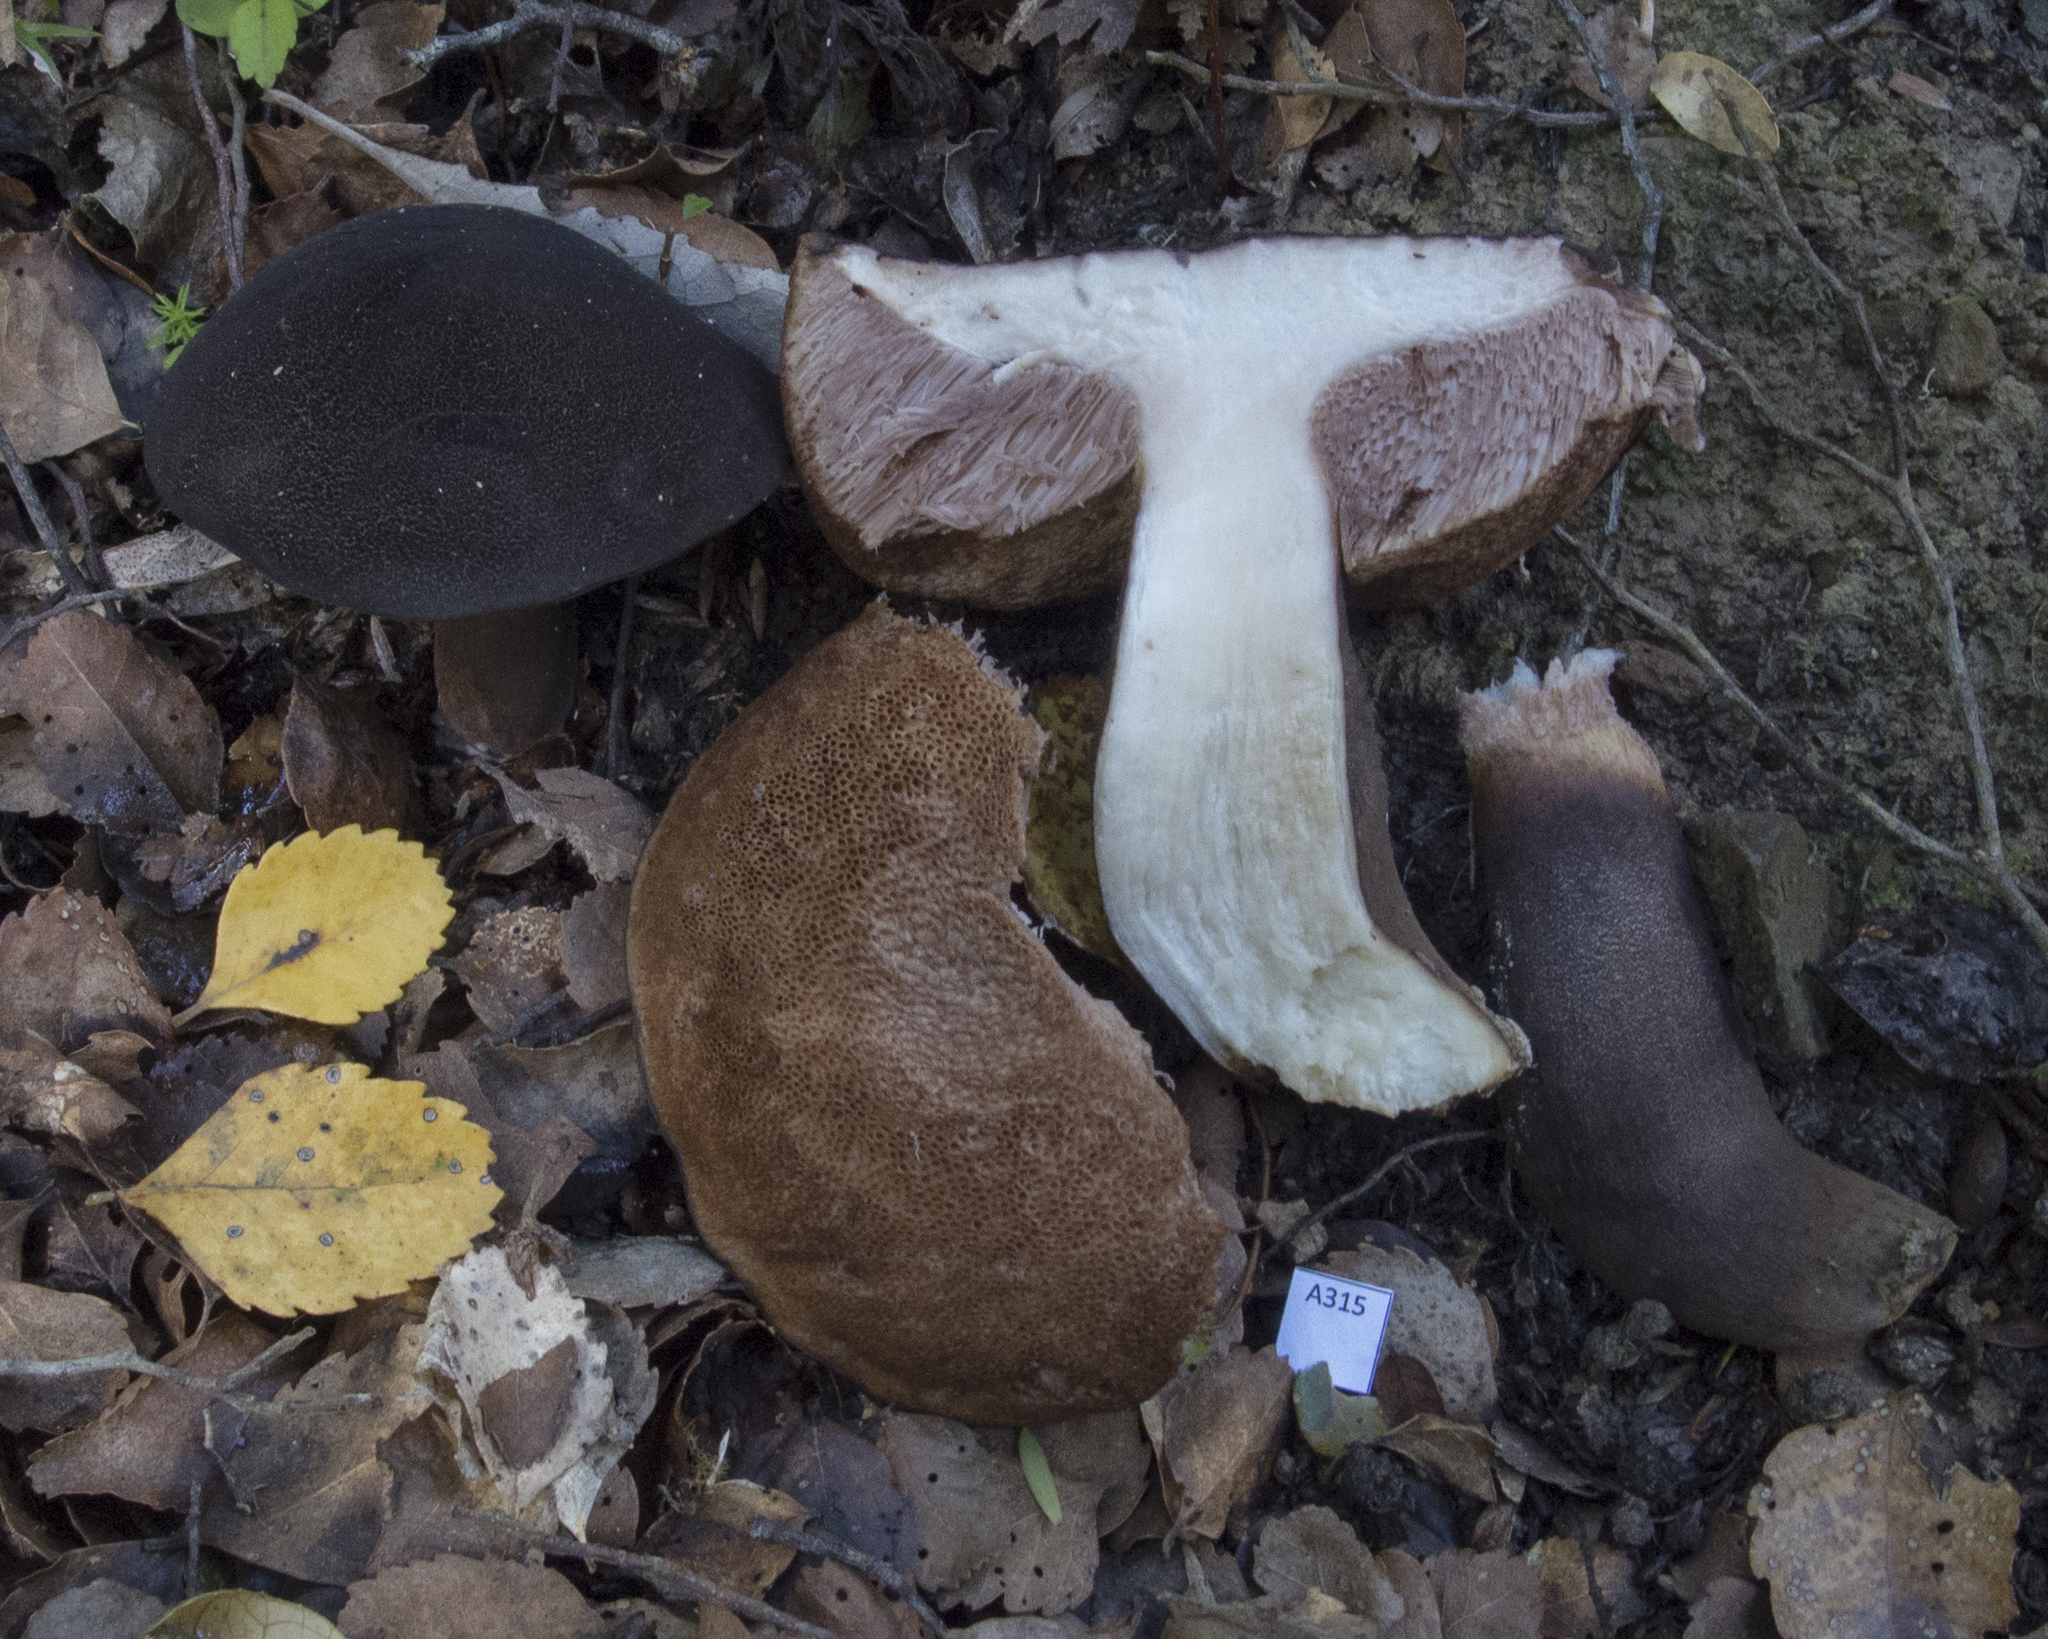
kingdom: Fungi
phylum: Basidiomycota
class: Agaricomycetes
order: Boletales
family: Boletaceae
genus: Porphyrellus
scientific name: Porphyrellus formosus
